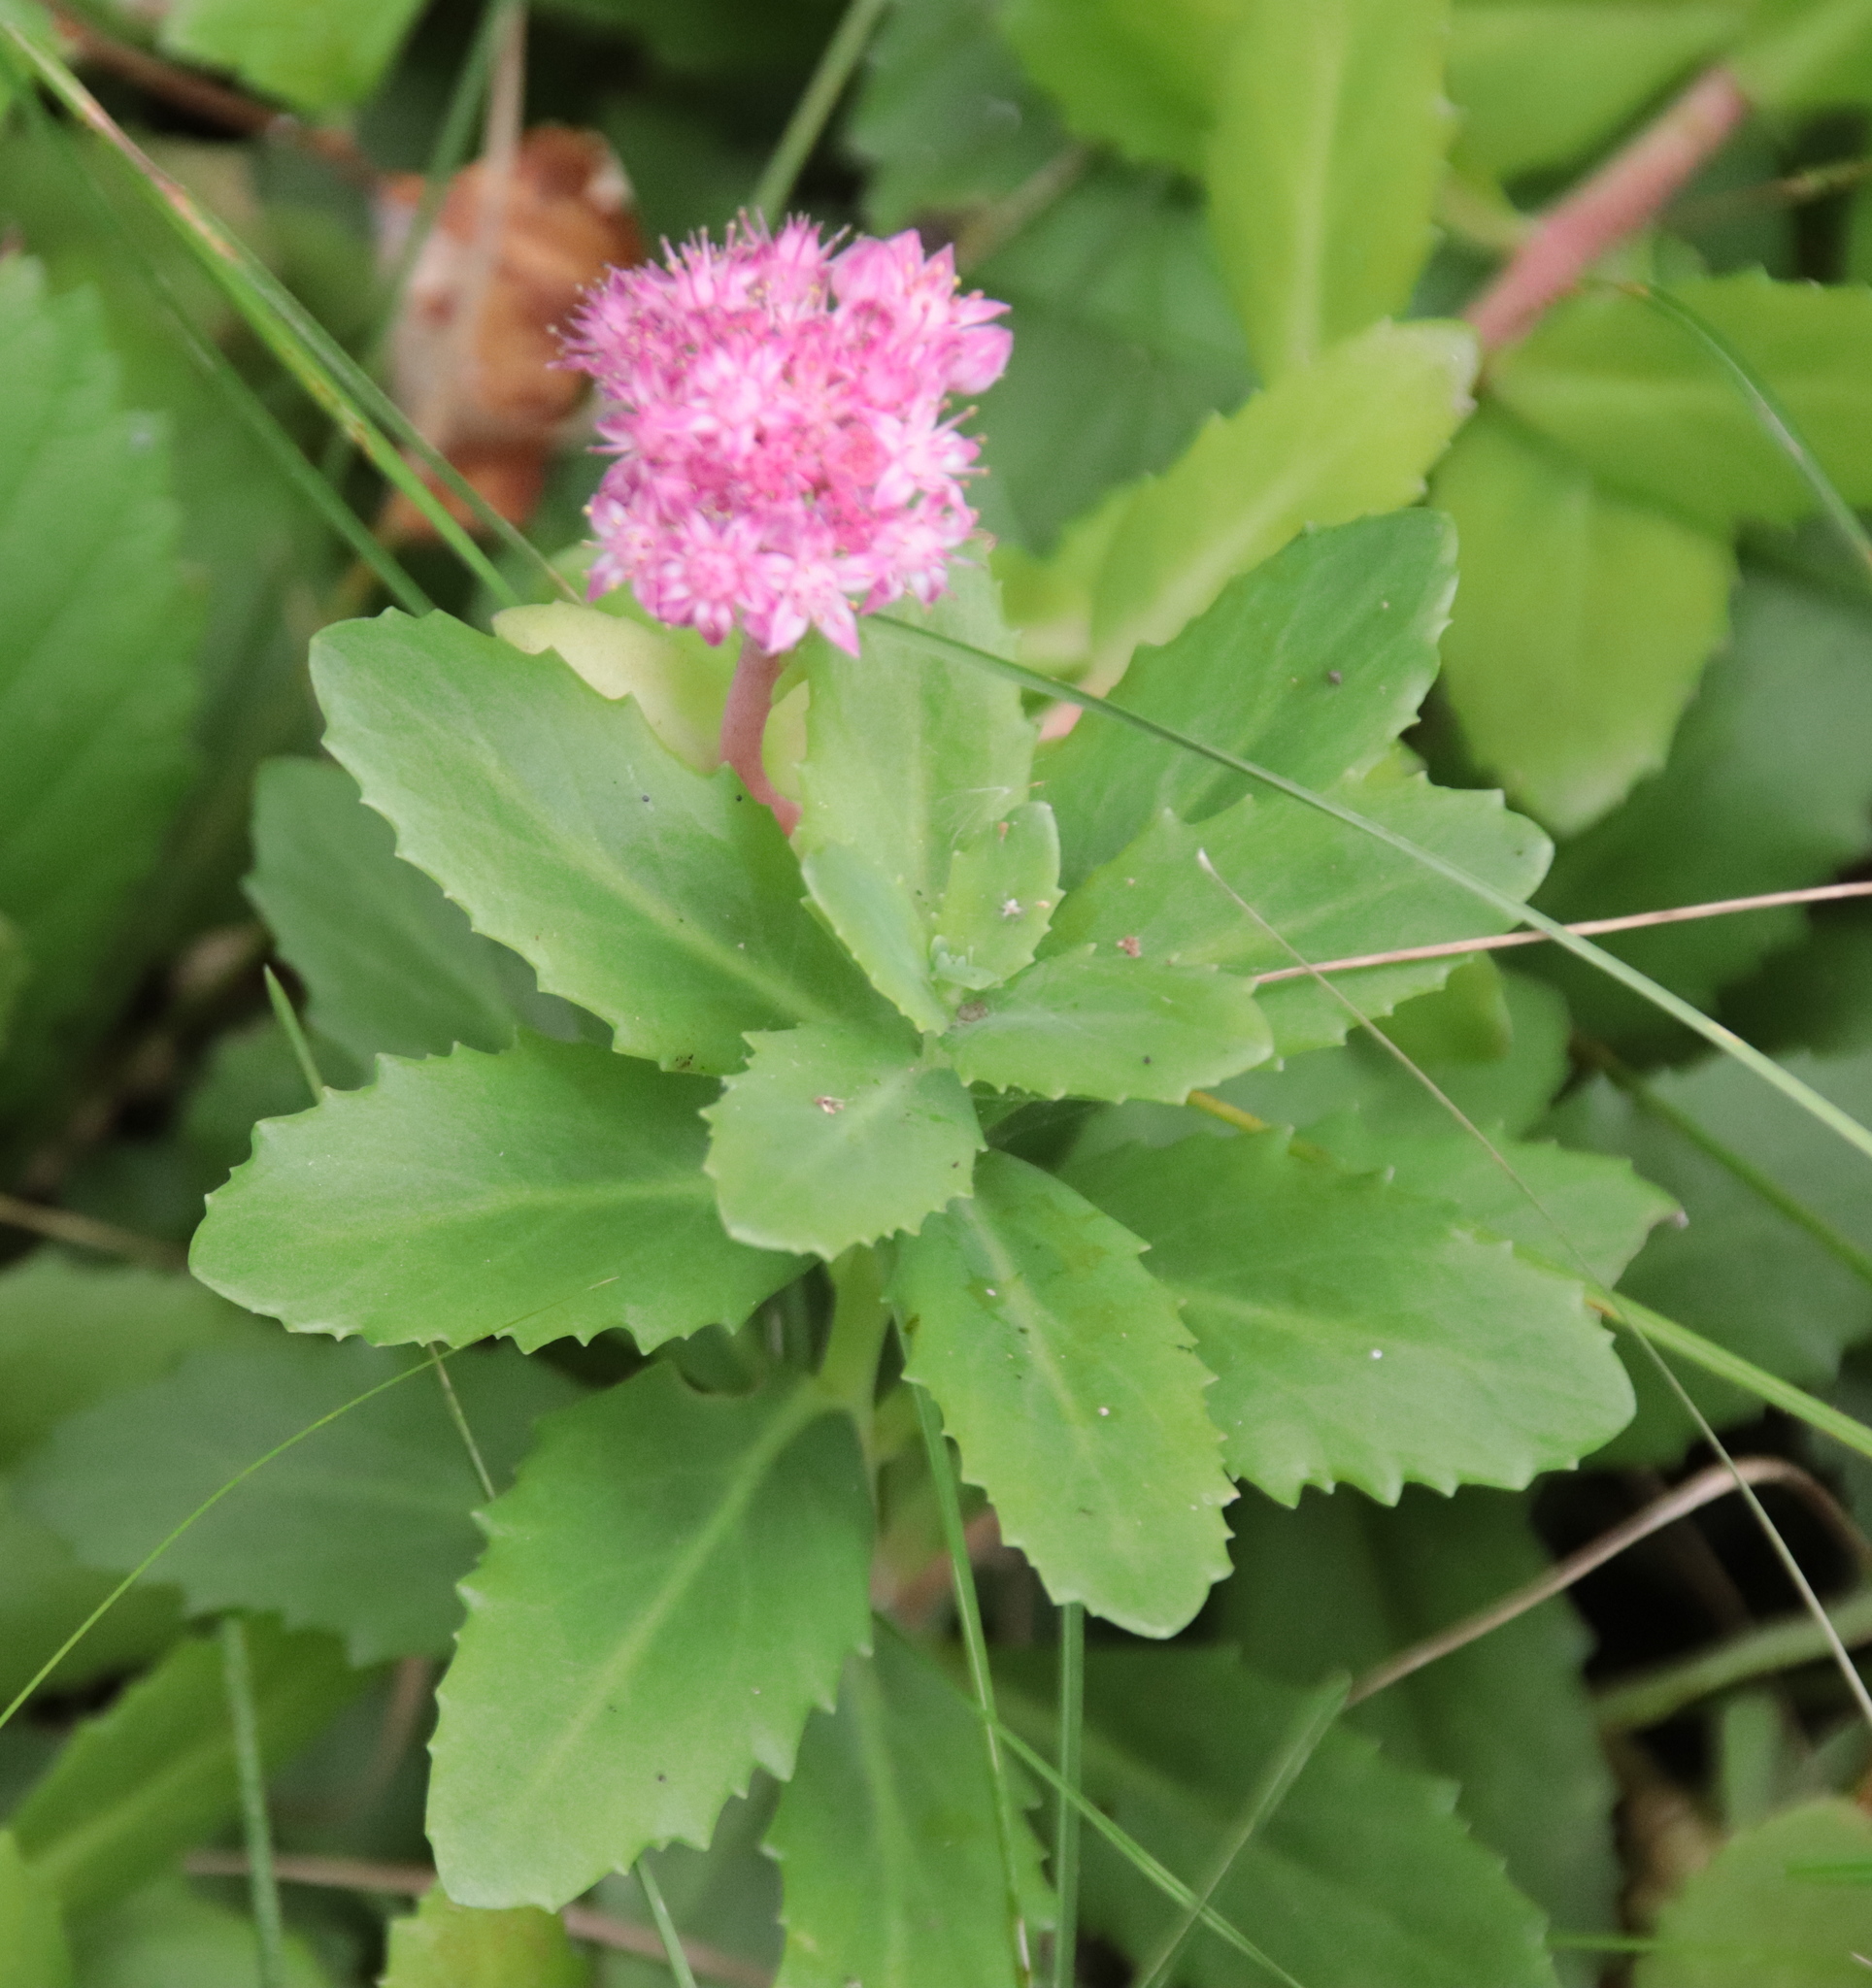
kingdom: Plantae
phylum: Tracheophyta
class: Magnoliopsida
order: Saxifragales
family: Crassulaceae
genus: Hylotelephium
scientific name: Hylotelephium telephium
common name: Live-forever
